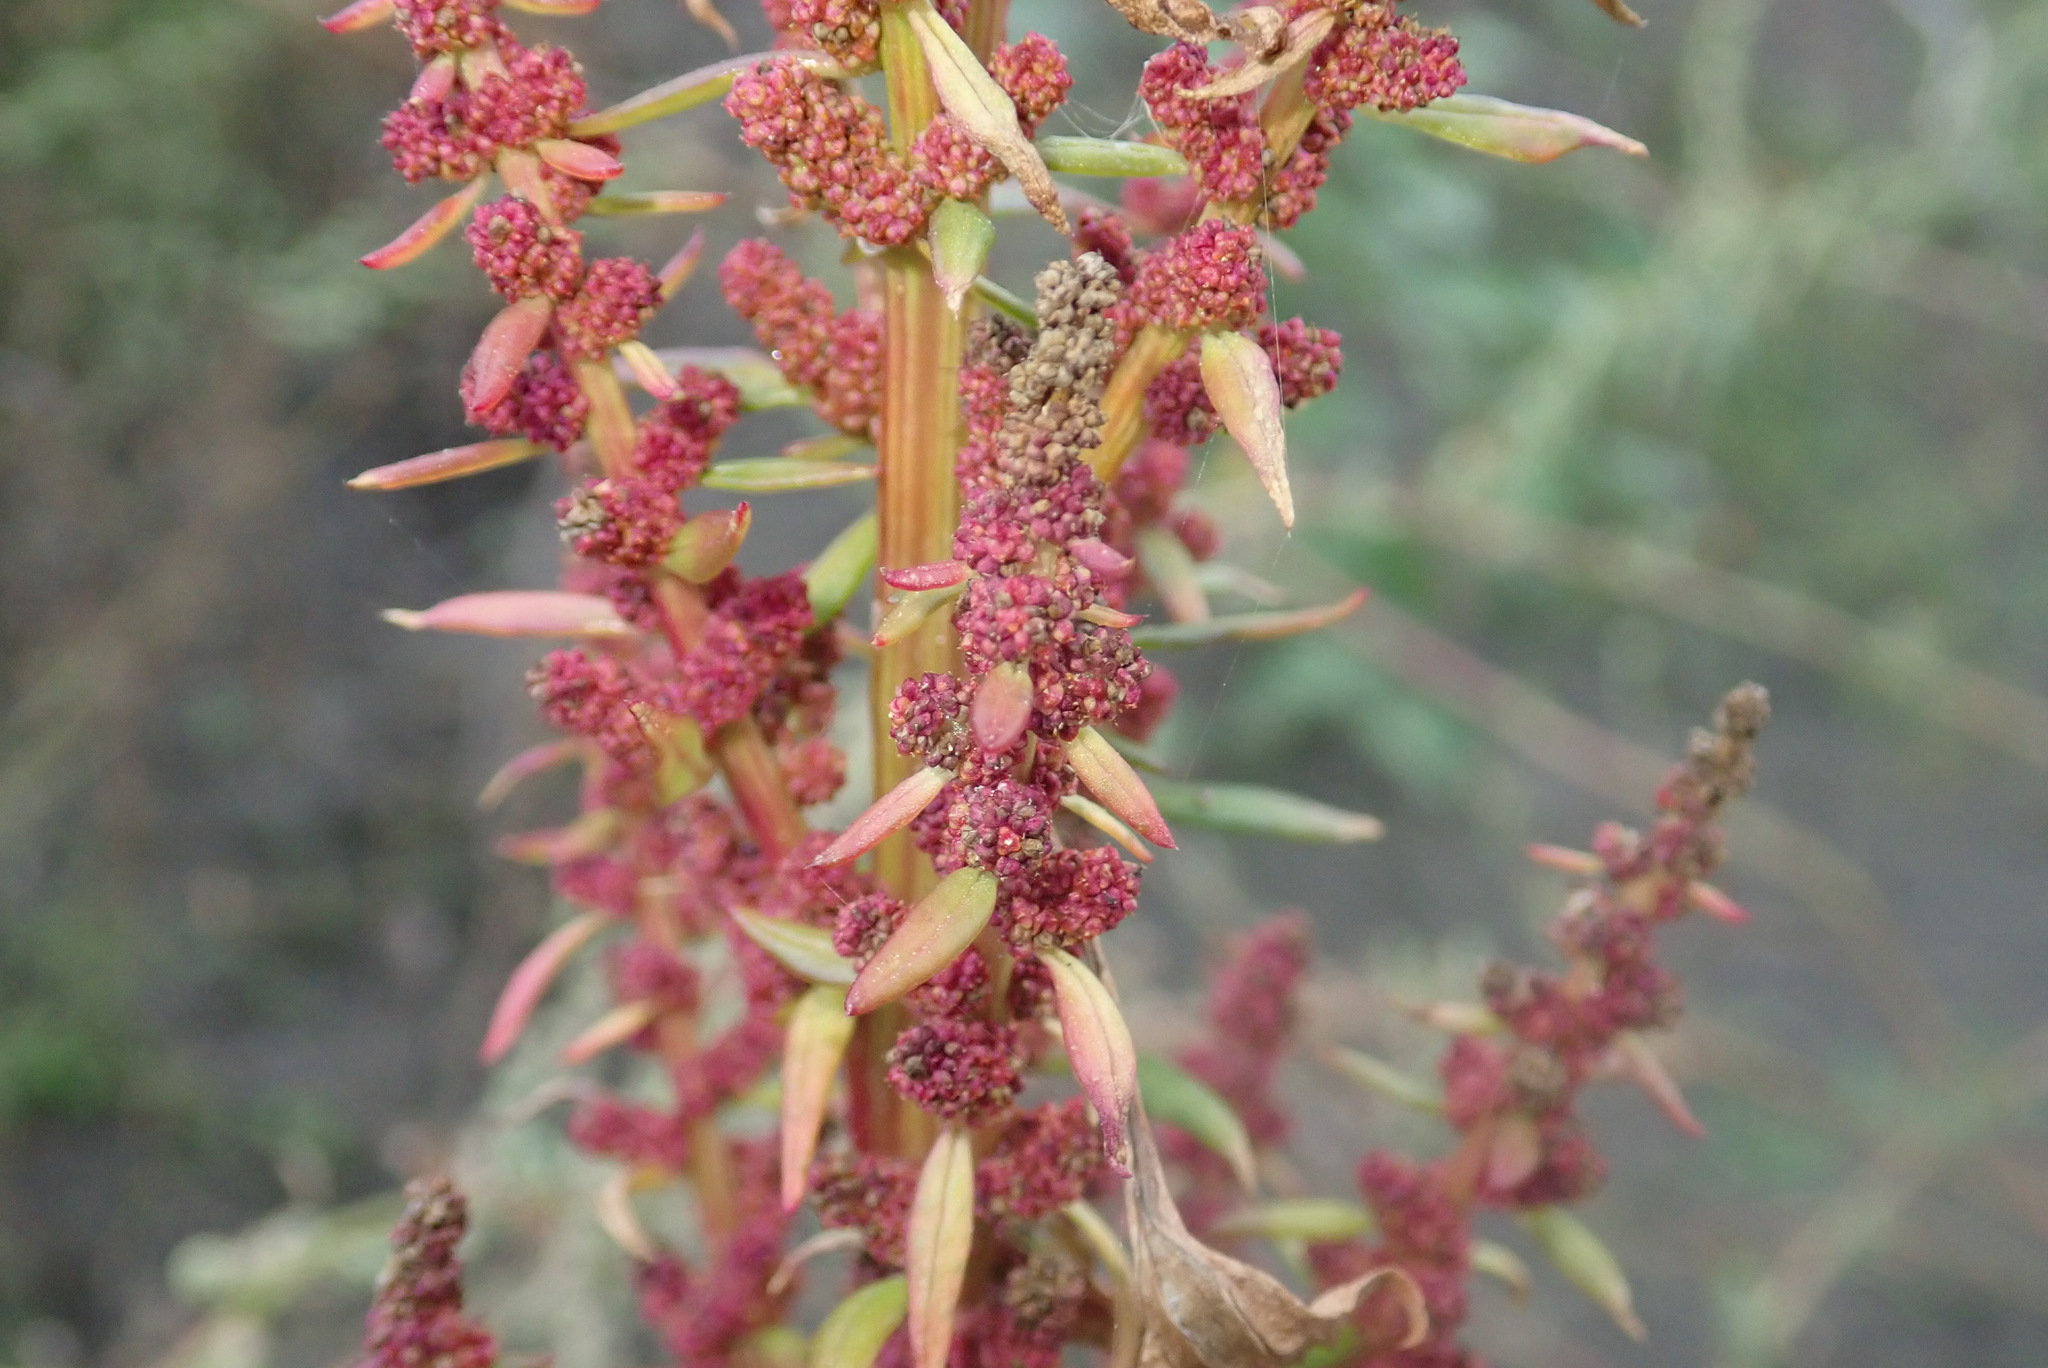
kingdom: Plantae
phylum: Tracheophyta
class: Magnoliopsida
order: Caryophyllales
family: Amaranthaceae
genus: Oxybasis
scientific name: Oxybasis rubra
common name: Red goosefoot
